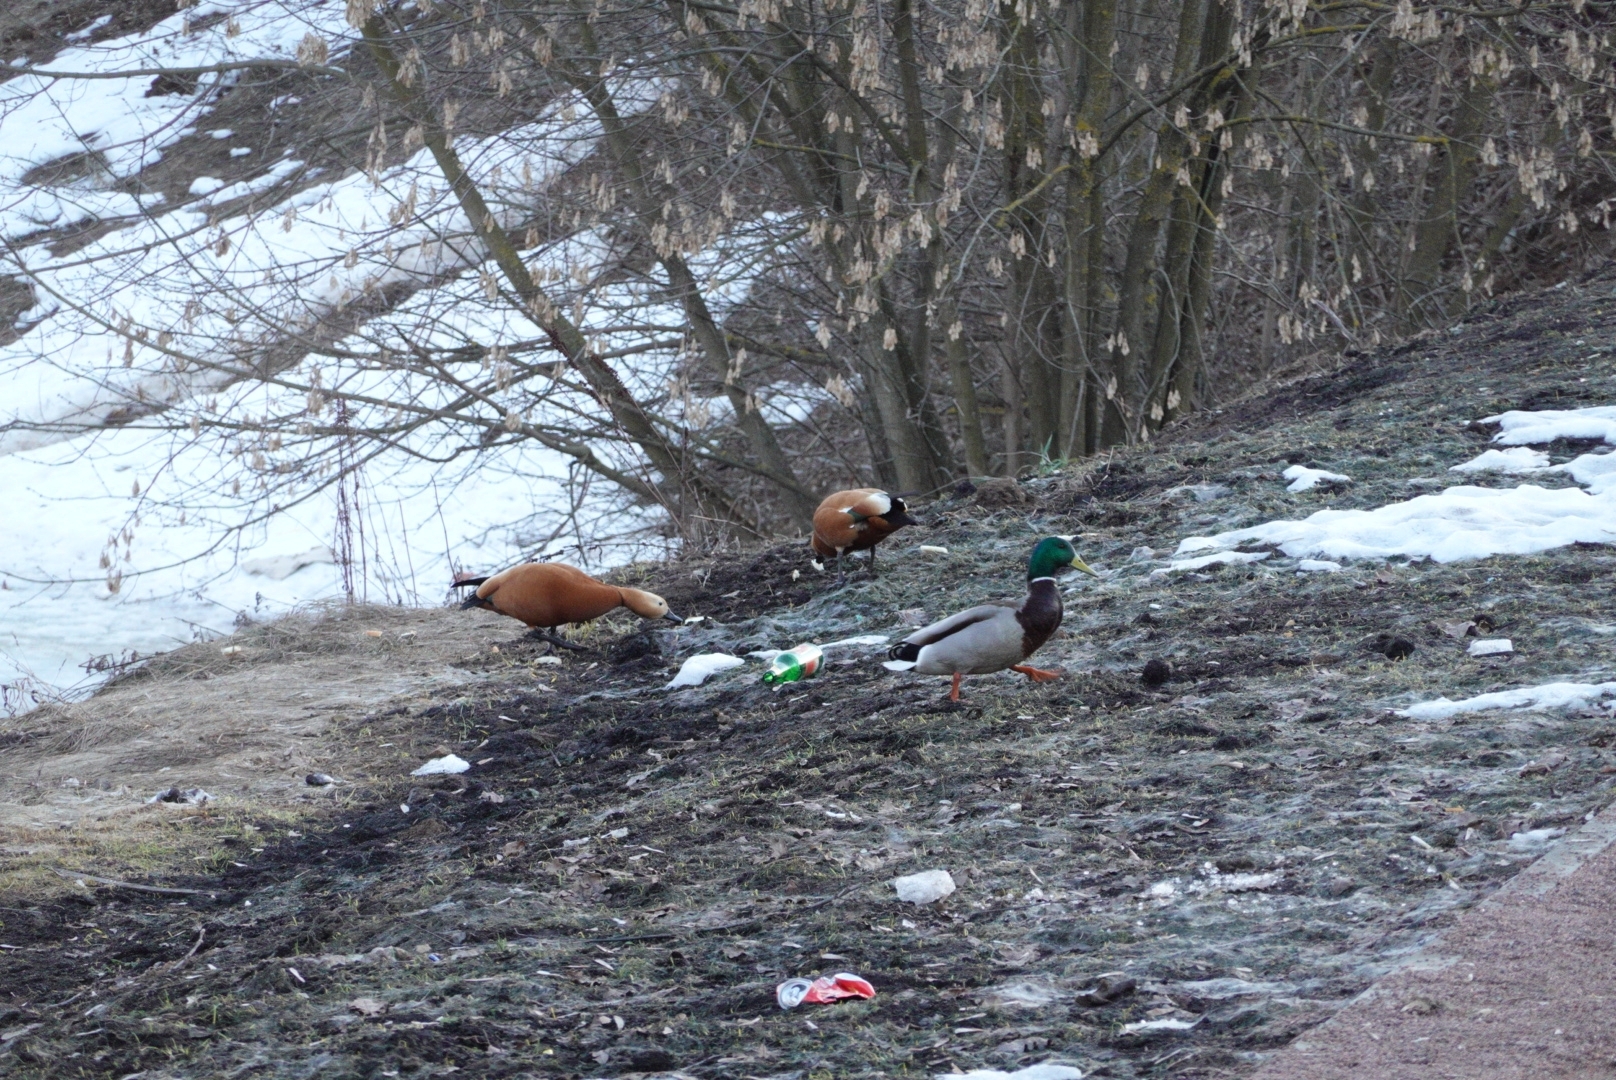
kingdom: Animalia
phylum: Chordata
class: Aves
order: Anseriformes
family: Anatidae
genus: Tadorna
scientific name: Tadorna ferruginea
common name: Ruddy shelduck
